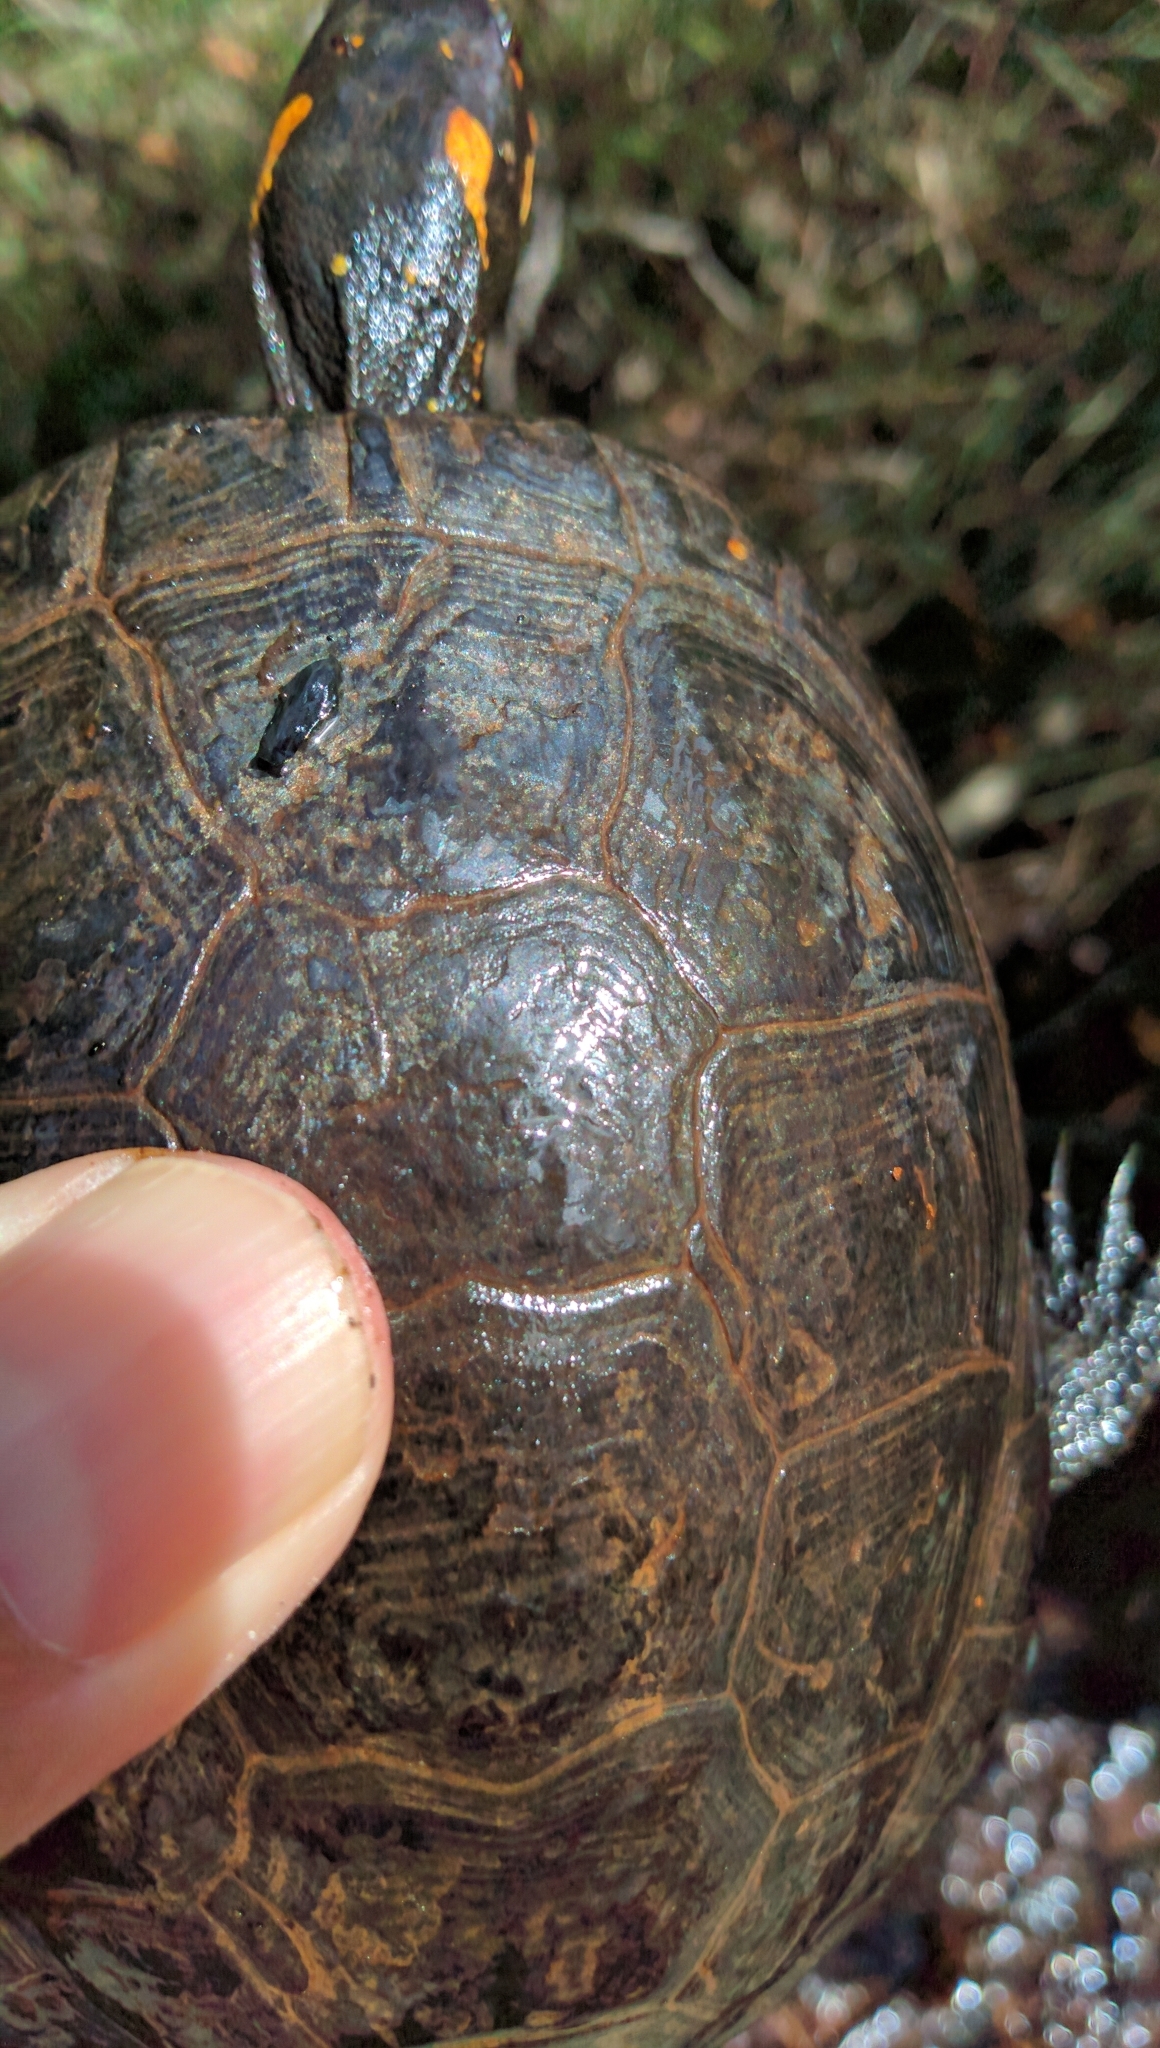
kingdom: Animalia
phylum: Chordata
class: Testudines
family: Emydidae
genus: Clemmys
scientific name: Clemmys guttata
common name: Spotted turtle
